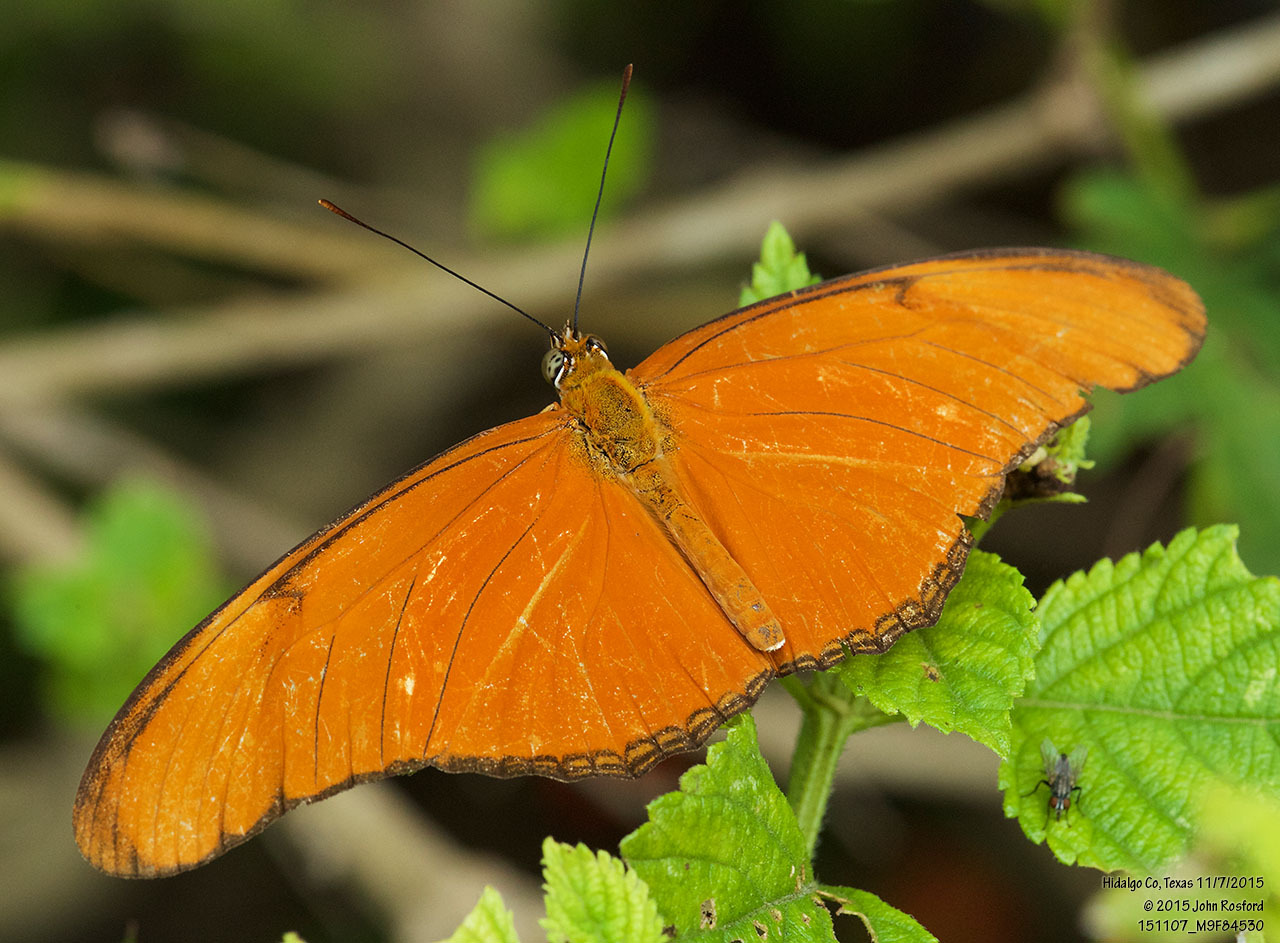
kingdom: Animalia
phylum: Arthropoda
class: Insecta
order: Lepidoptera
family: Nymphalidae
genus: Dryas
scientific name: Dryas iulia
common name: Flambeau
